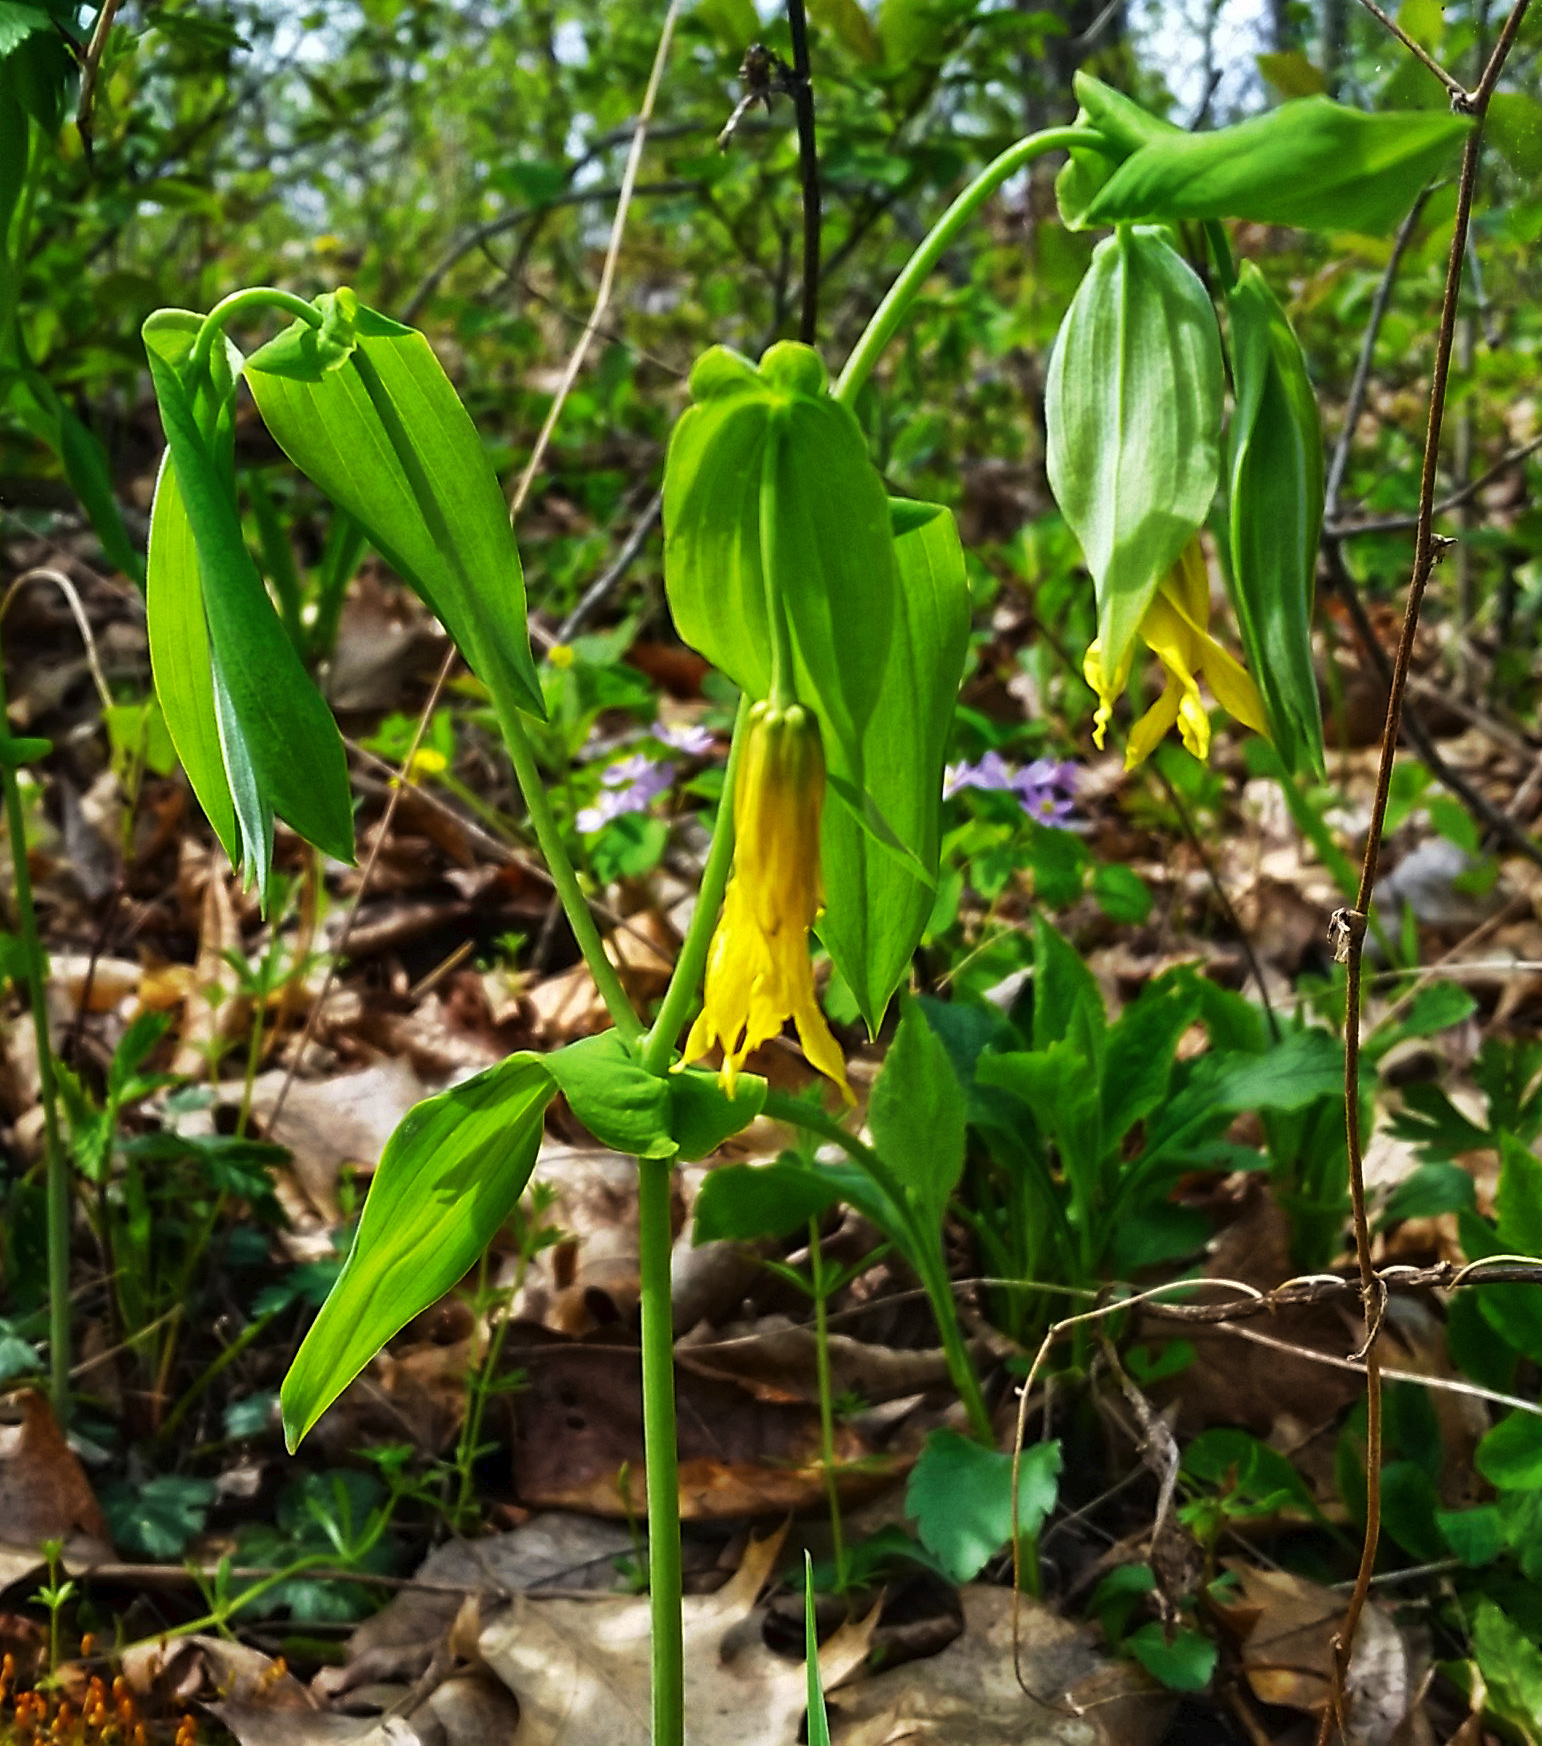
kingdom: Plantae
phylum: Tracheophyta
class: Liliopsida
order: Liliales
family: Colchicaceae
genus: Uvularia
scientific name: Uvularia grandiflora
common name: Bellwort
